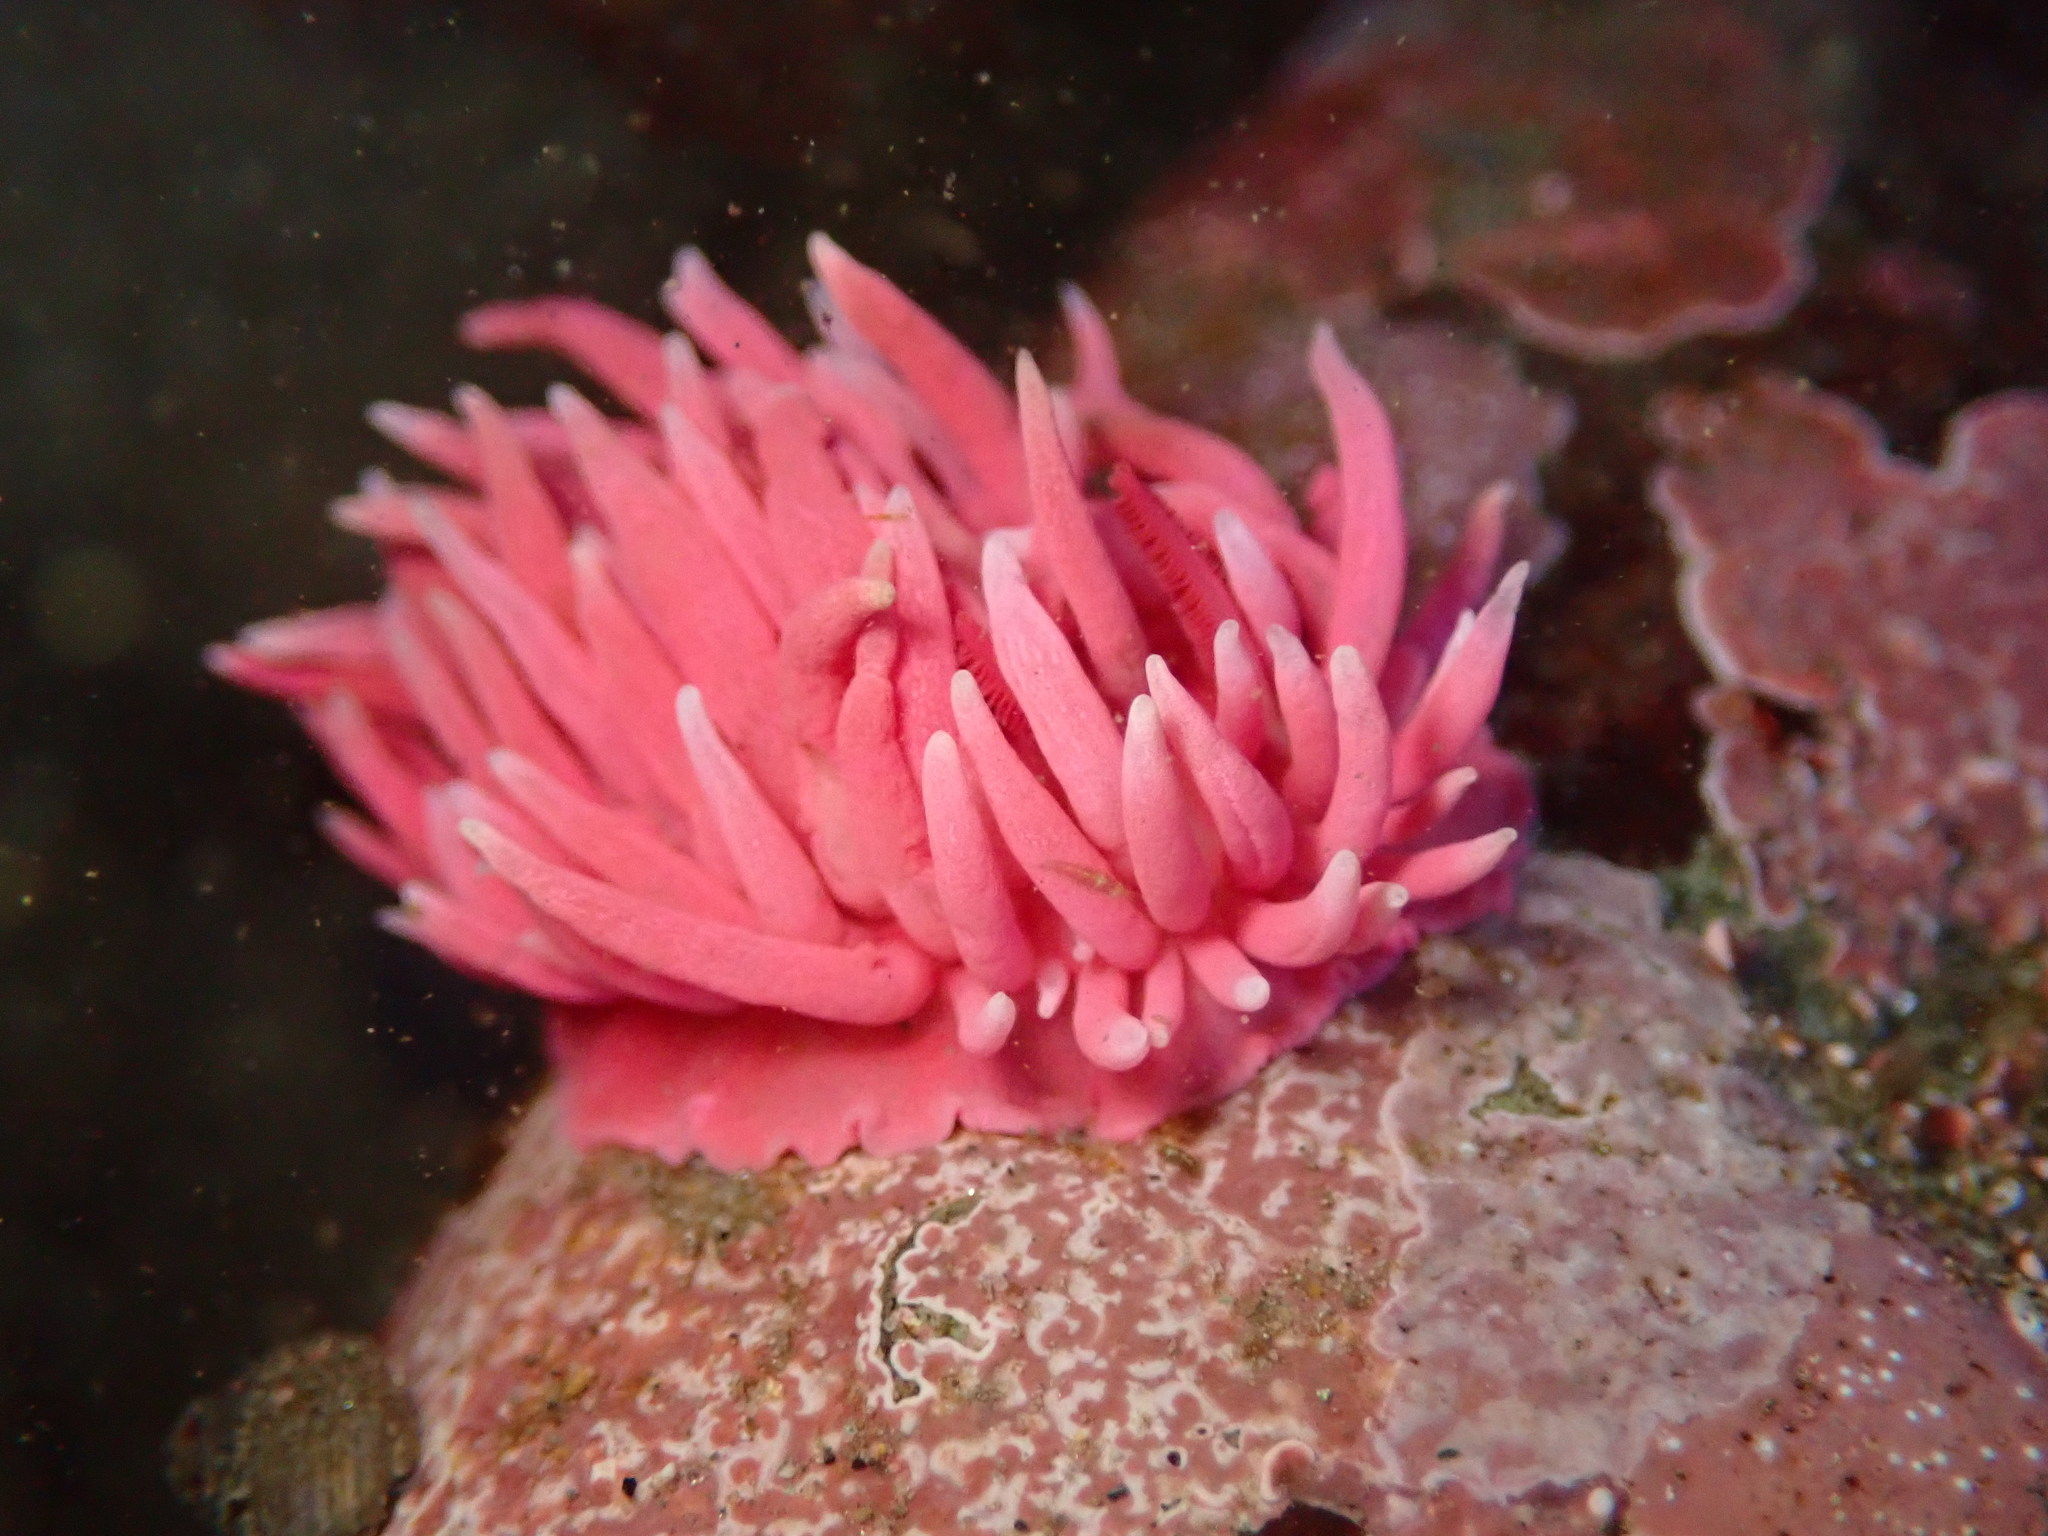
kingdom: Animalia
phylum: Mollusca
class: Gastropoda
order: Nudibranchia
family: Goniodorididae
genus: Okenia
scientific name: Okenia
